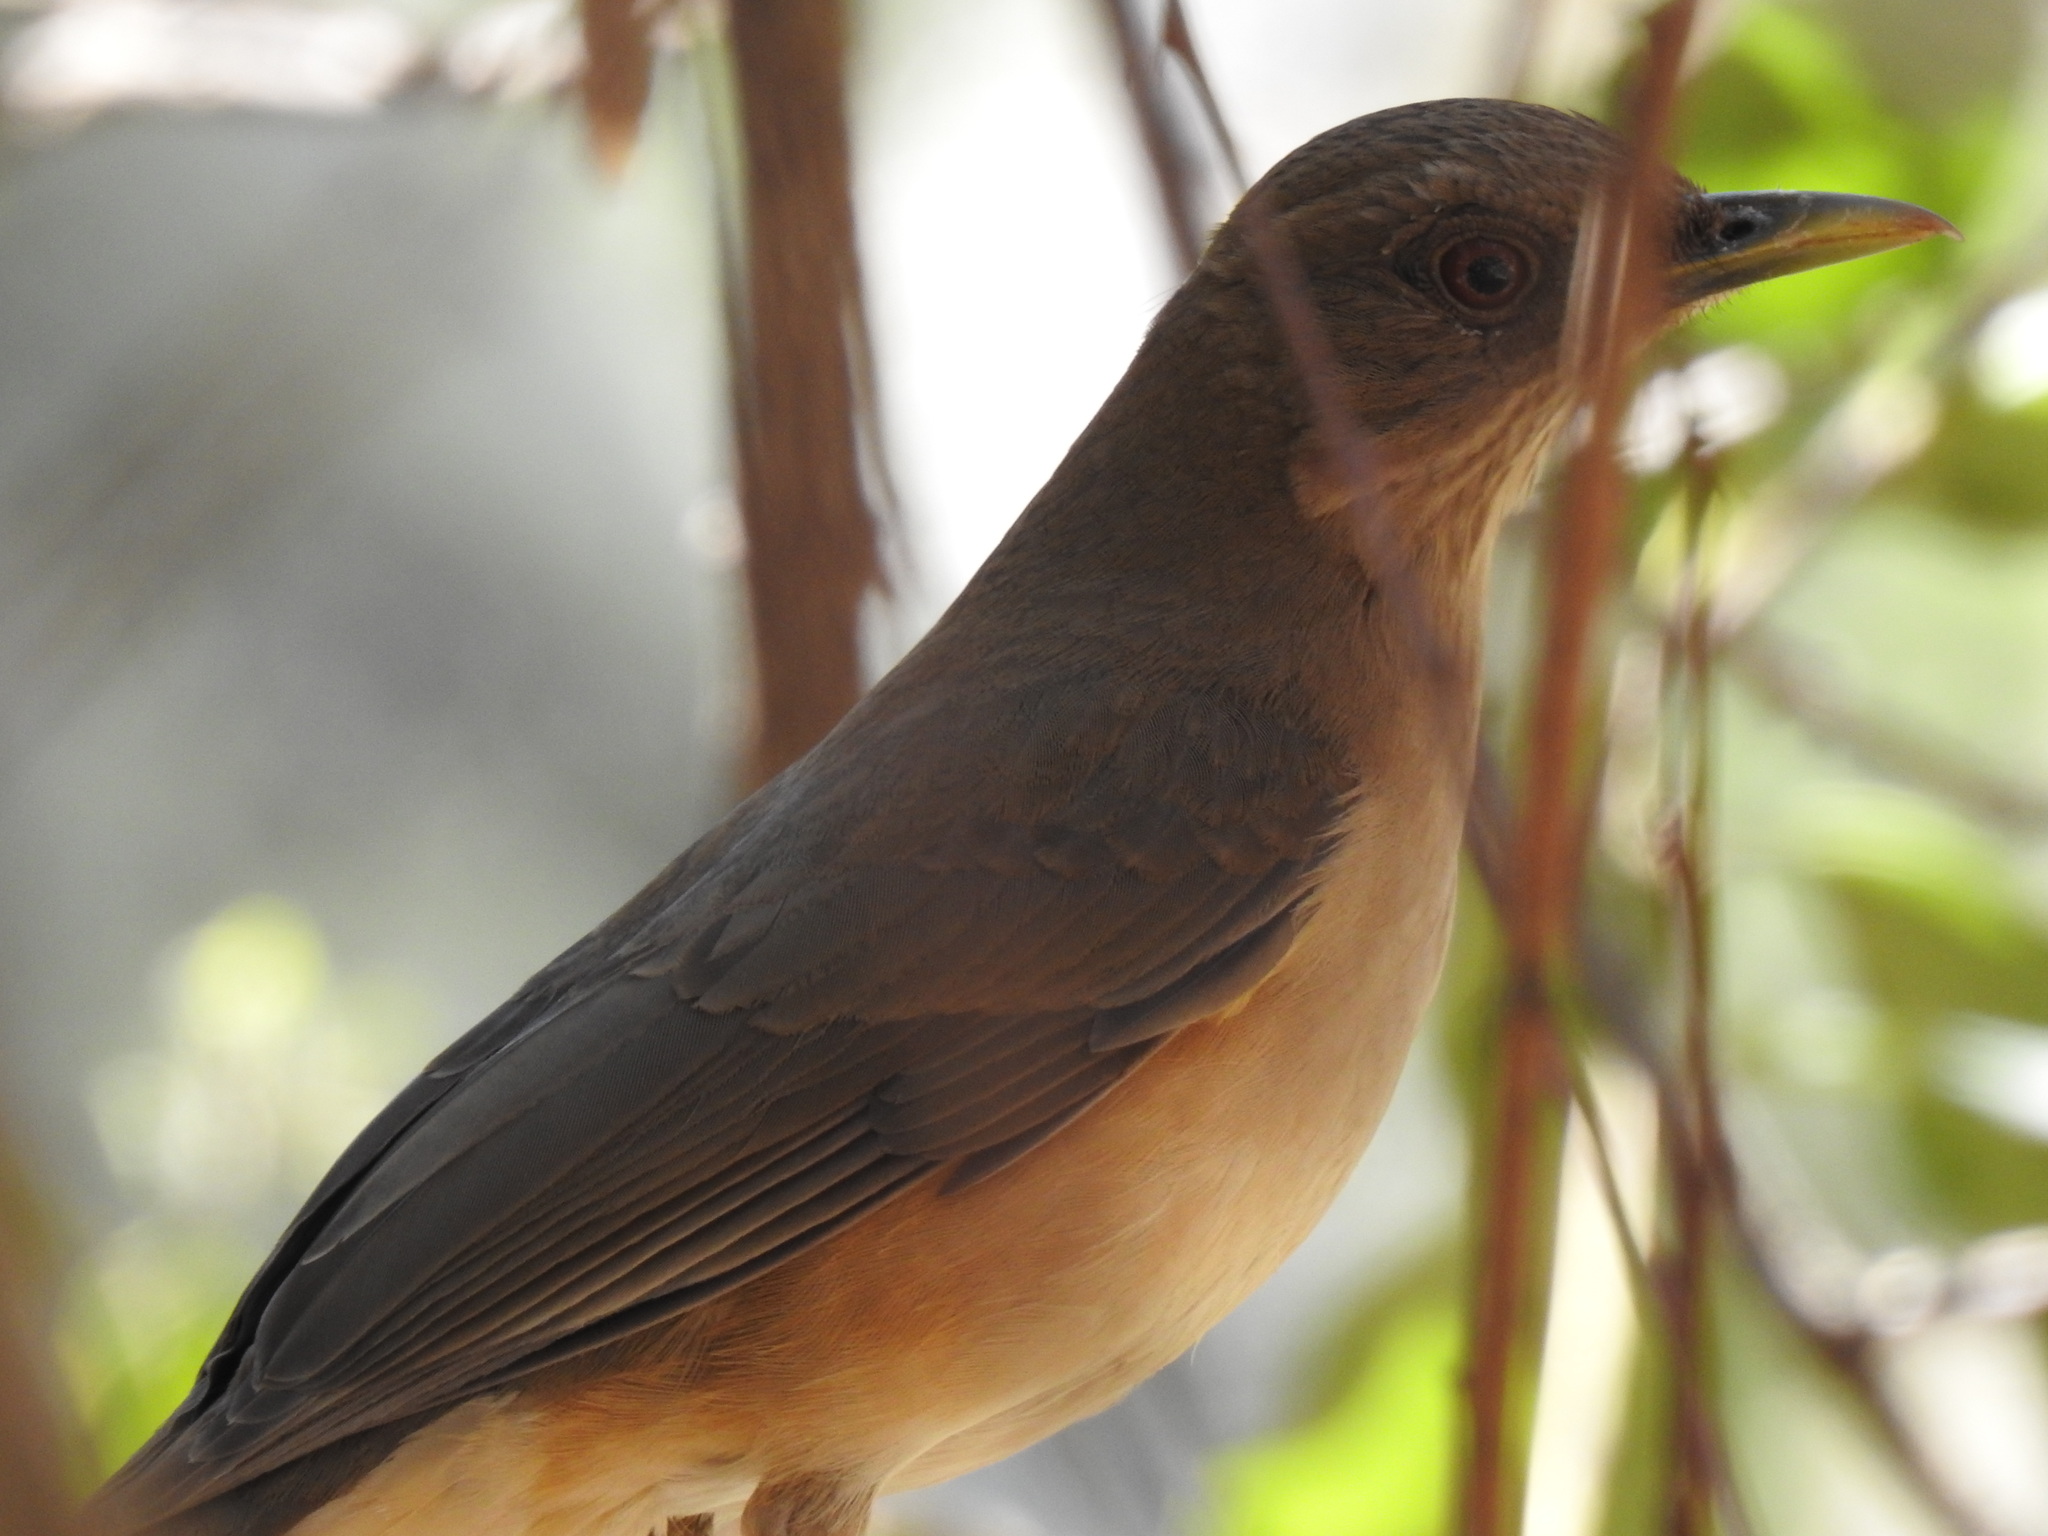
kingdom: Animalia
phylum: Chordata
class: Aves
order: Passeriformes
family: Turdidae
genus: Turdus
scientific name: Turdus grayi
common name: Clay-colored thrush
